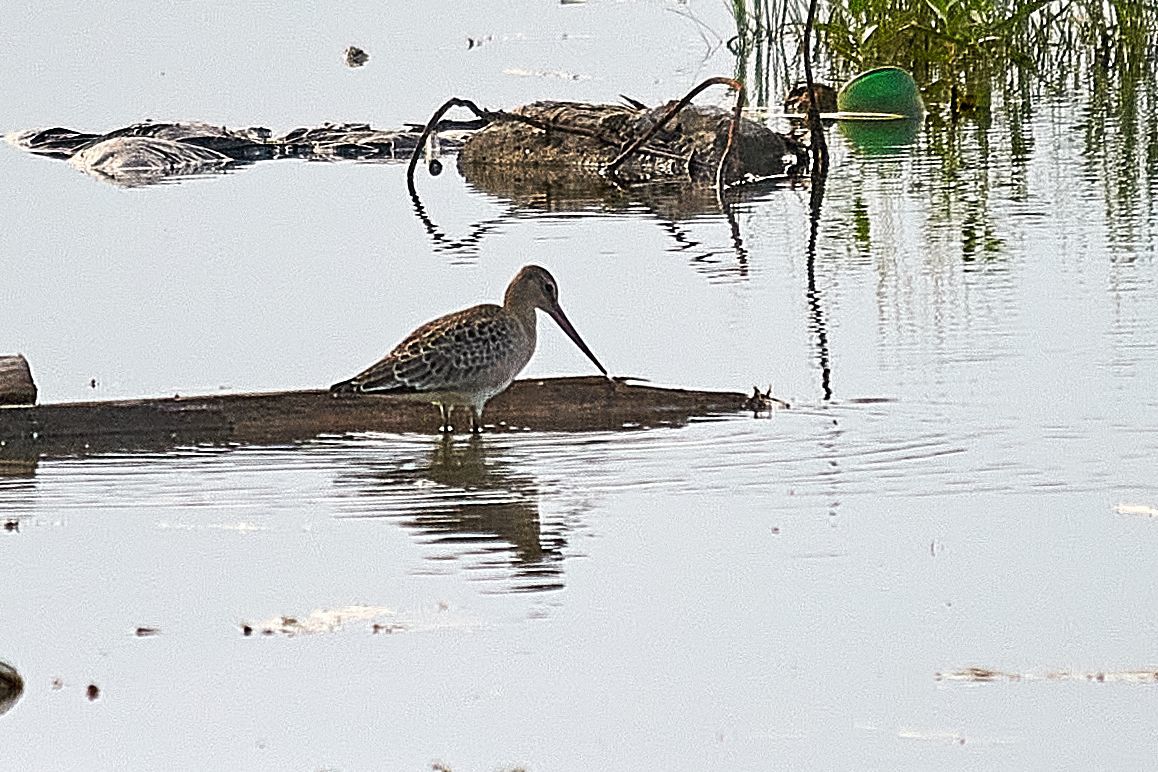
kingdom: Animalia
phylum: Chordata
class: Aves
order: Charadriiformes
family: Scolopacidae
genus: Limosa
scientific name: Limosa limosa
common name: Black-tailed godwit
